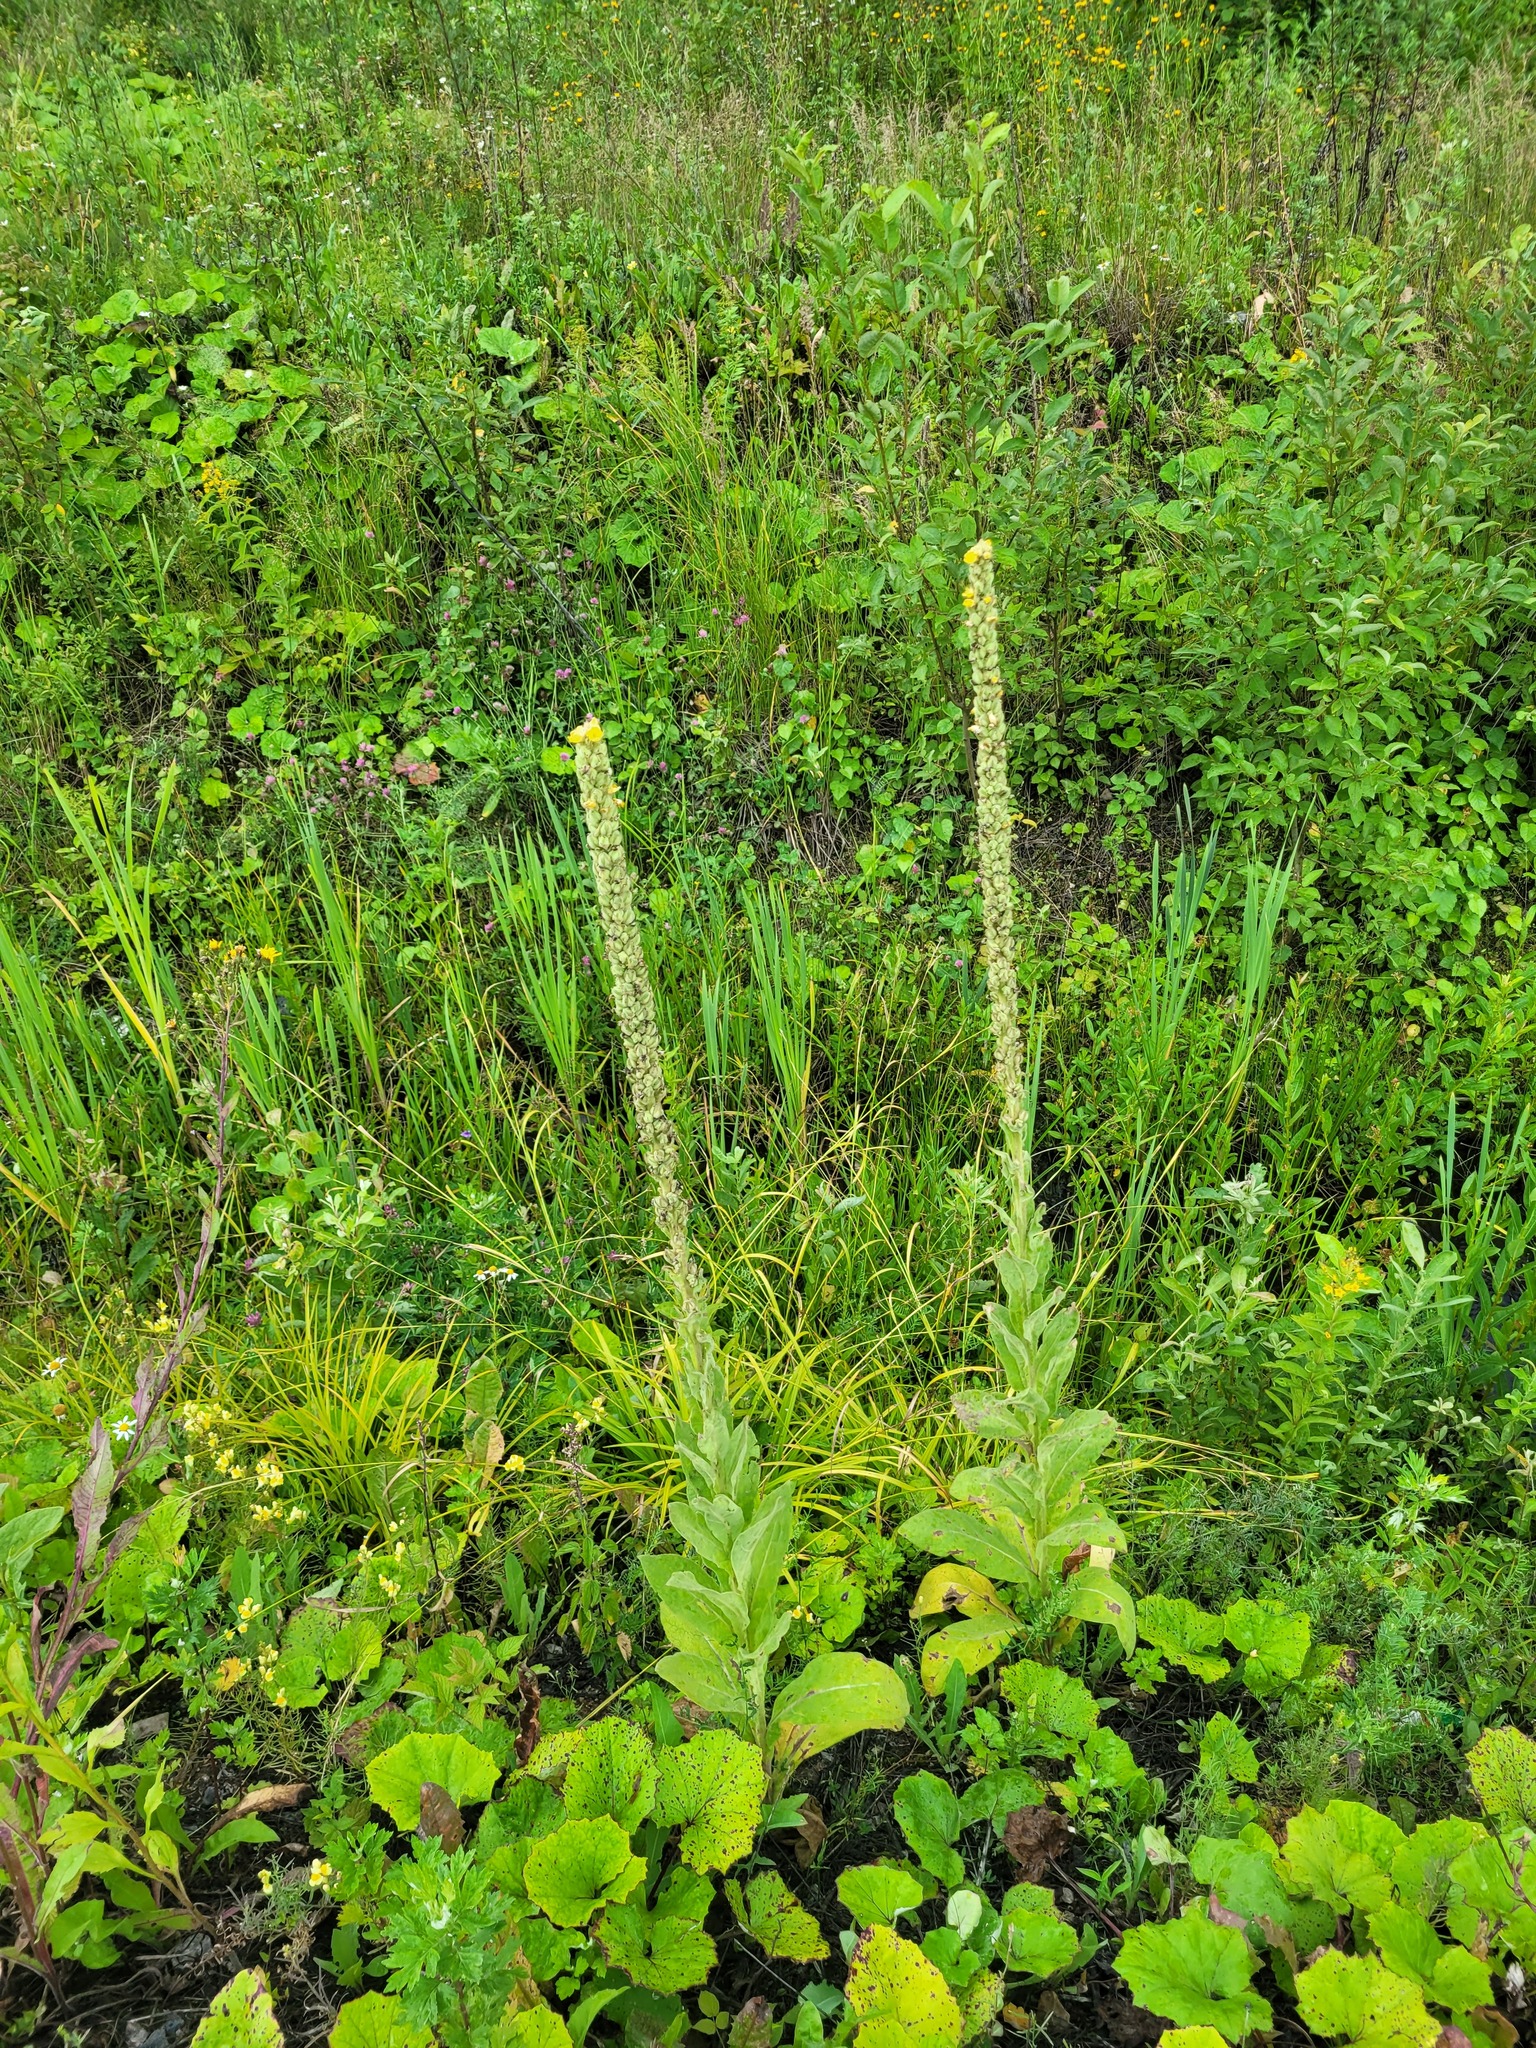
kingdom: Plantae
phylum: Tracheophyta
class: Magnoliopsida
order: Lamiales
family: Scrophulariaceae
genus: Verbascum
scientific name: Verbascum thapsus
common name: Common mullein
